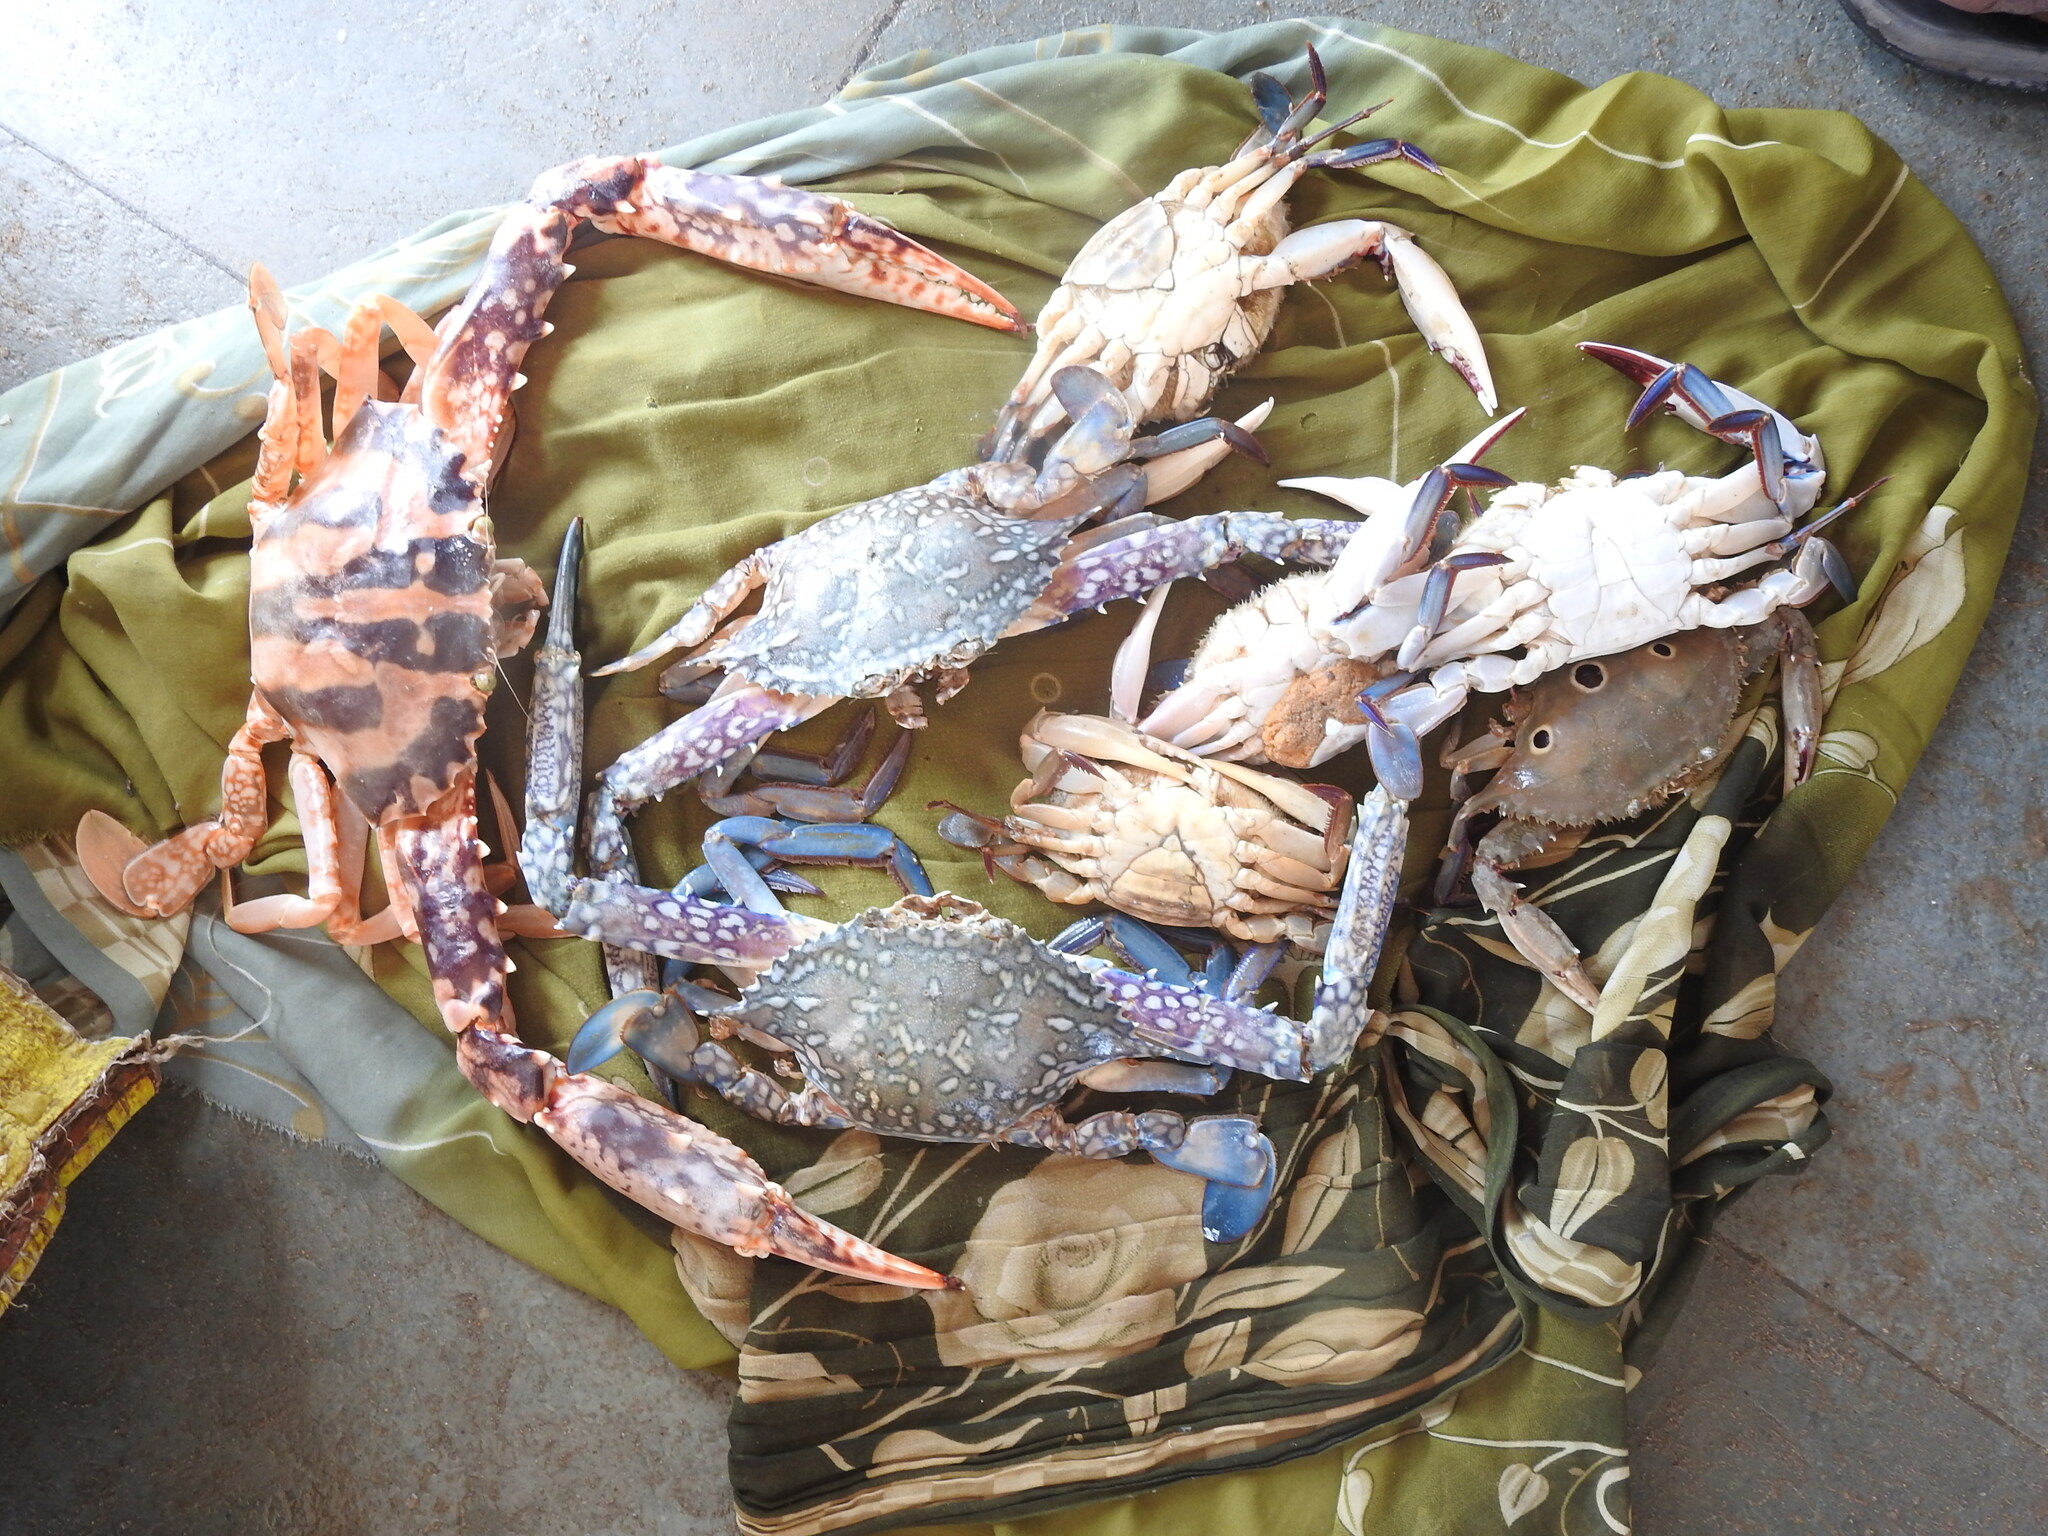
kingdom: Animalia
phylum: Arthropoda
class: Malacostraca
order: Decapoda
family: Portunidae
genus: Portunus
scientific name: Portunus sanguinolentus
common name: Blood-spotted swimming crab
